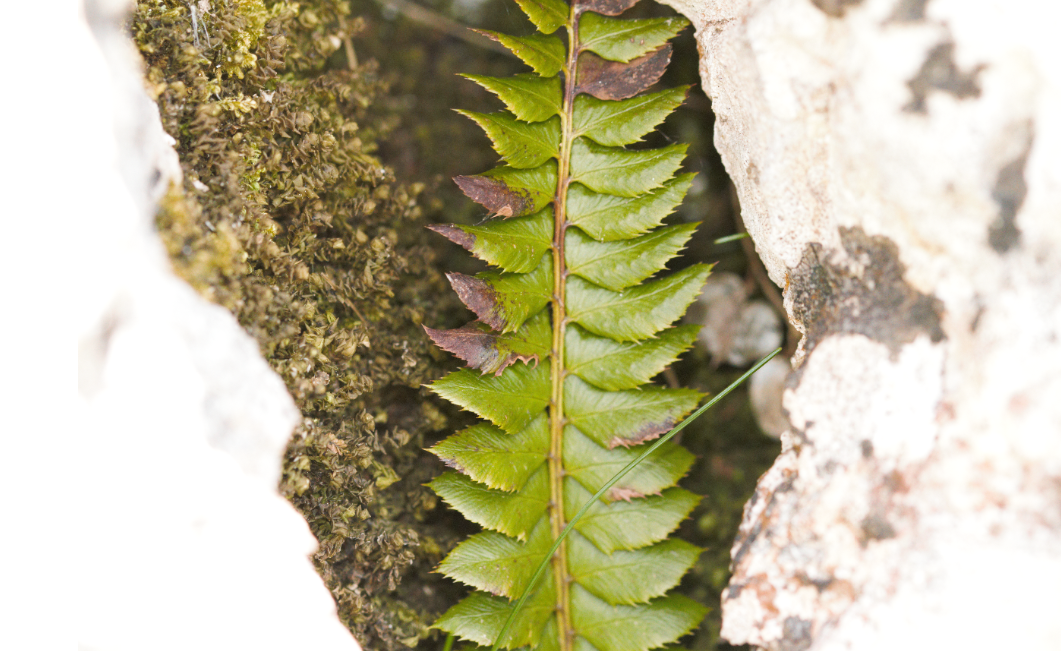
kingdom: Plantae
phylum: Tracheophyta
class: Polypodiopsida
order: Polypodiales
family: Dryopteridaceae
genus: Polystichum
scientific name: Polystichum lonchitis
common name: Holly fern
